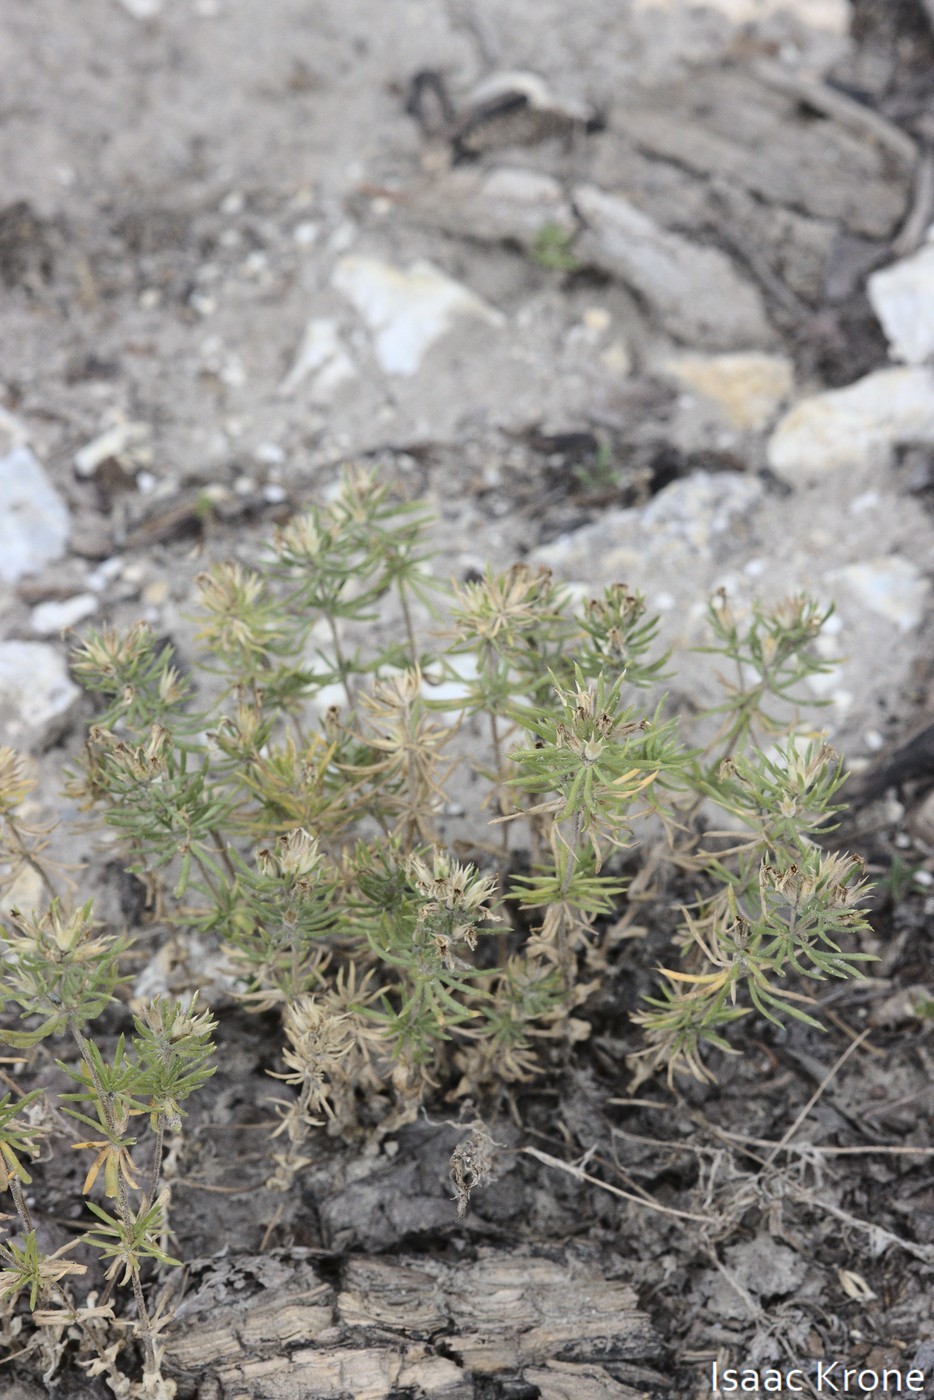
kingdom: Plantae
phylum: Tracheophyta
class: Magnoliopsida
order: Ericales
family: Polemoniaceae
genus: Leptosiphon
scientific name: Leptosiphon nuttallii
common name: Nuttall's linanthus
